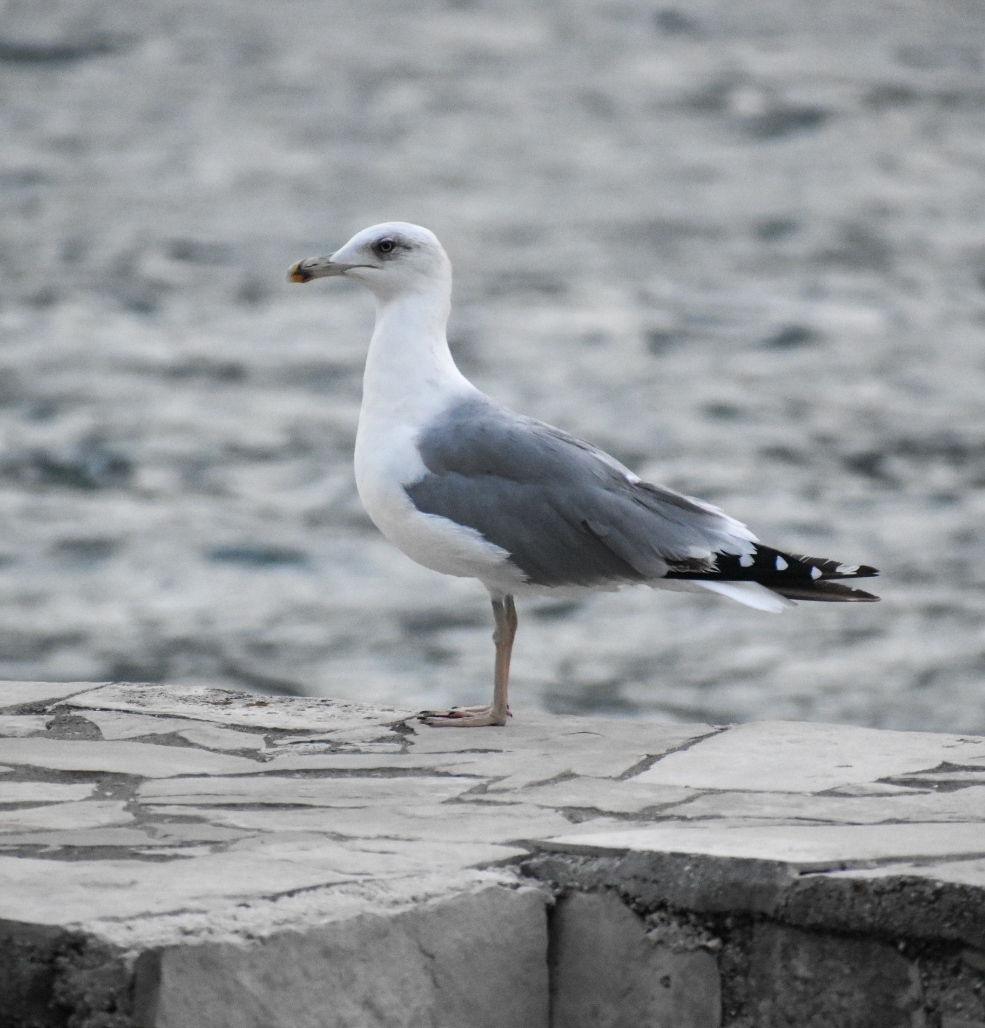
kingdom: Animalia
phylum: Chordata
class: Aves
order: Charadriiformes
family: Laridae
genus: Larus
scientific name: Larus michahellis
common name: Yellow-legged gull
